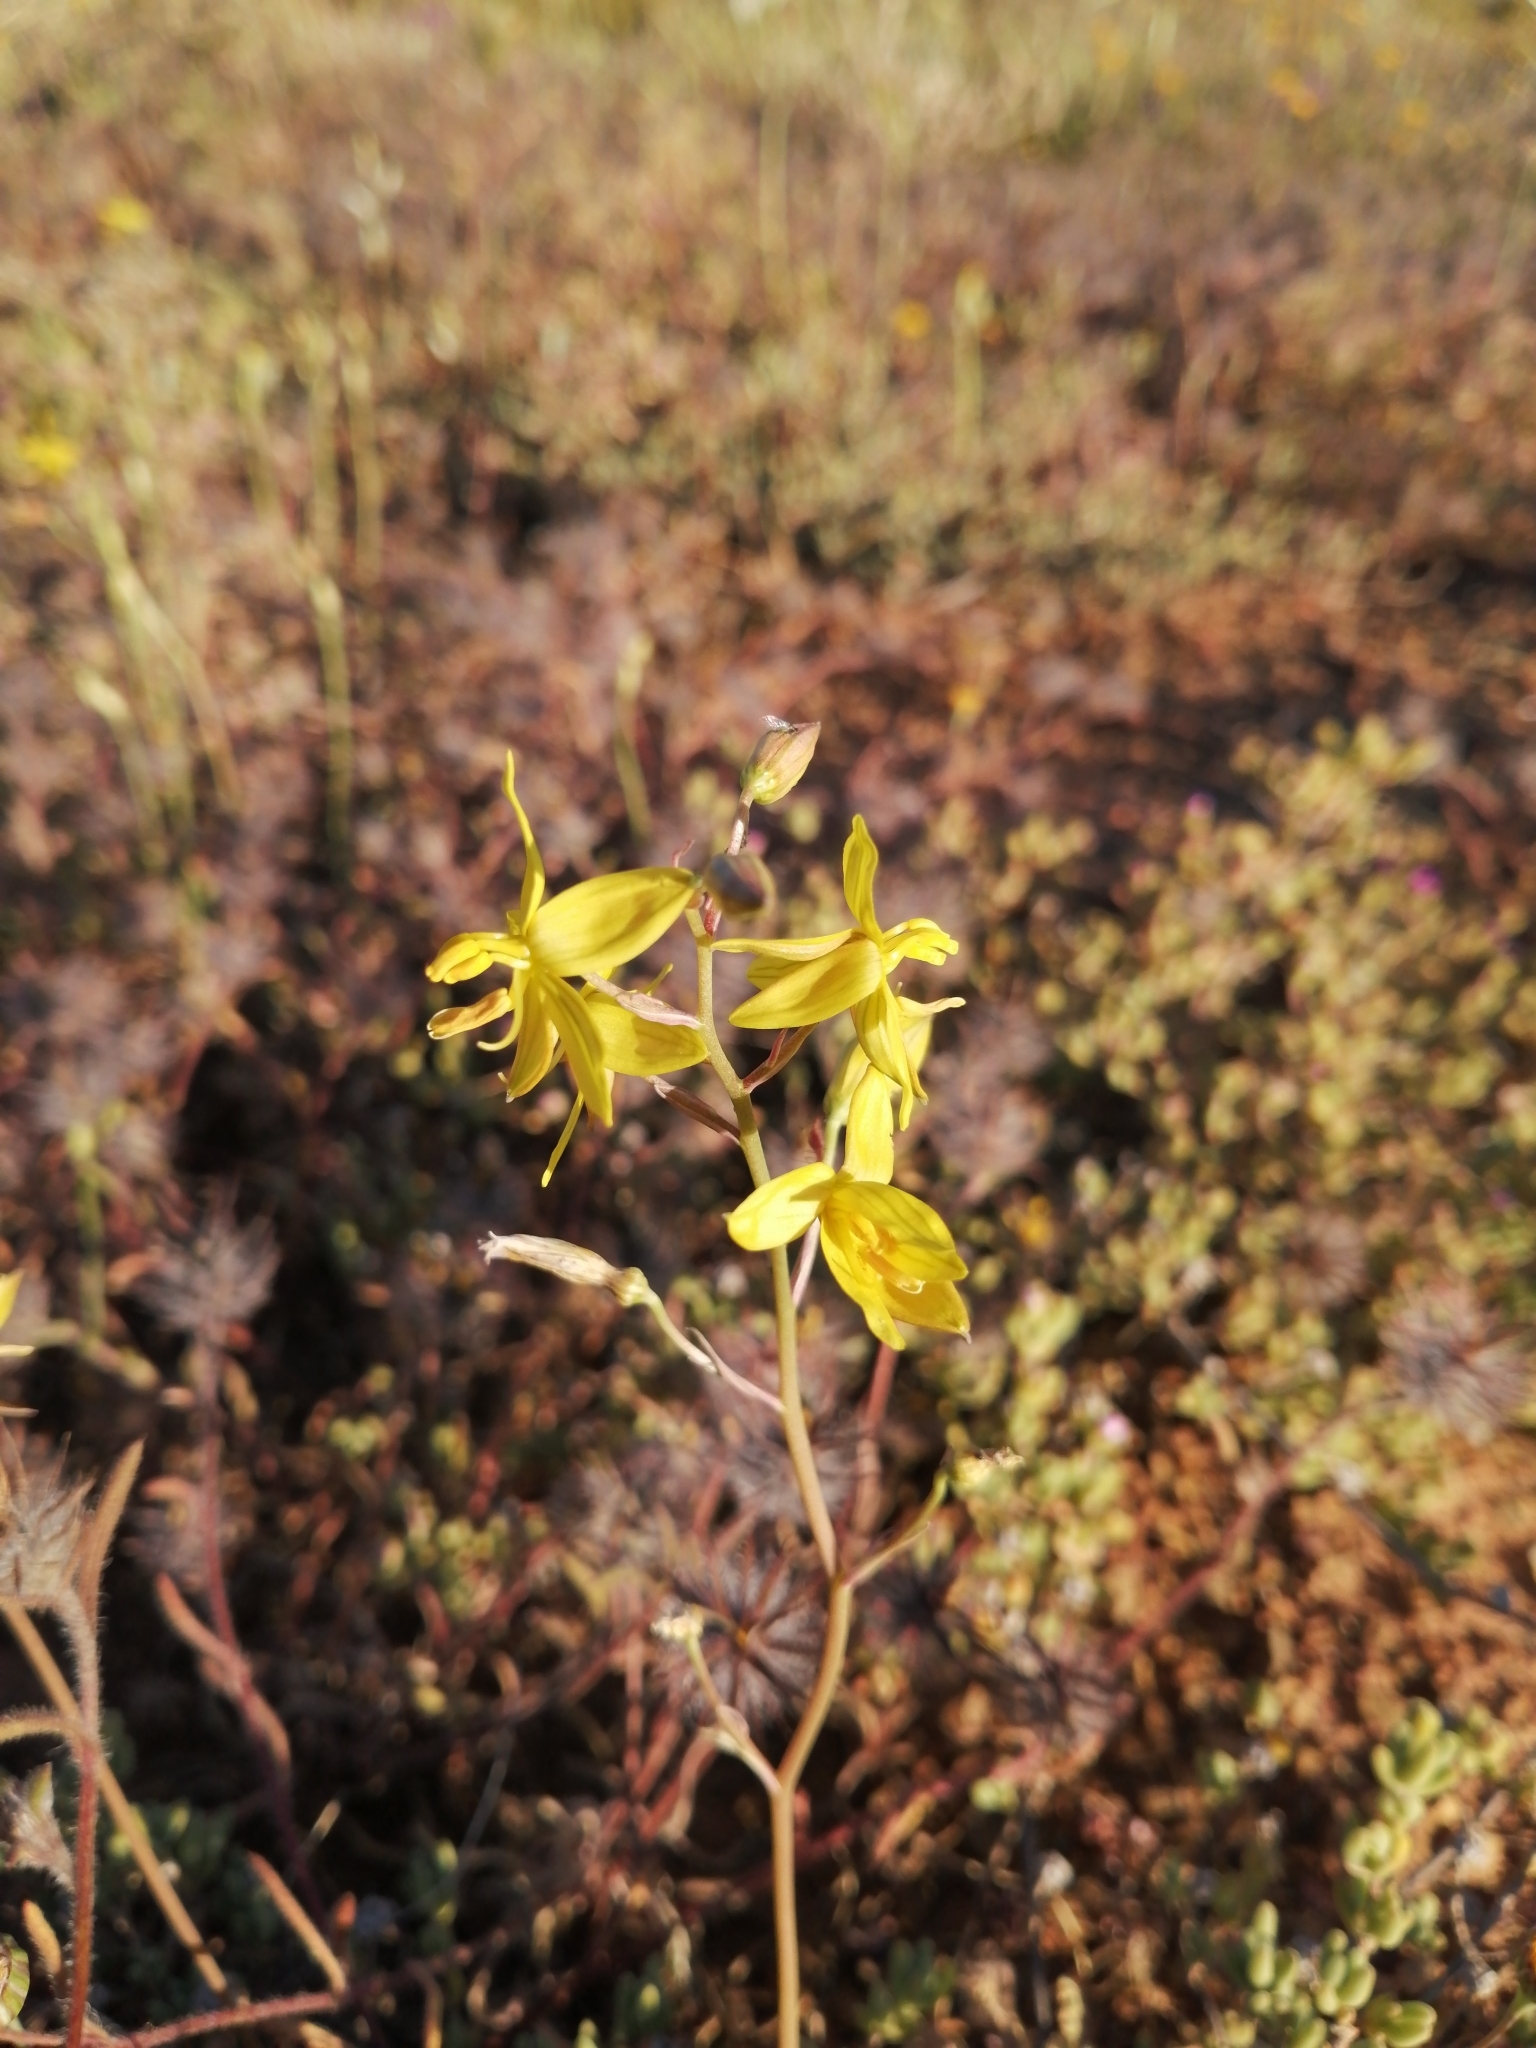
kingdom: Plantae
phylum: Tracheophyta
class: Liliopsida
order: Asparagales
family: Tecophilaeaceae
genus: Cyanella
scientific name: Cyanella lutea
